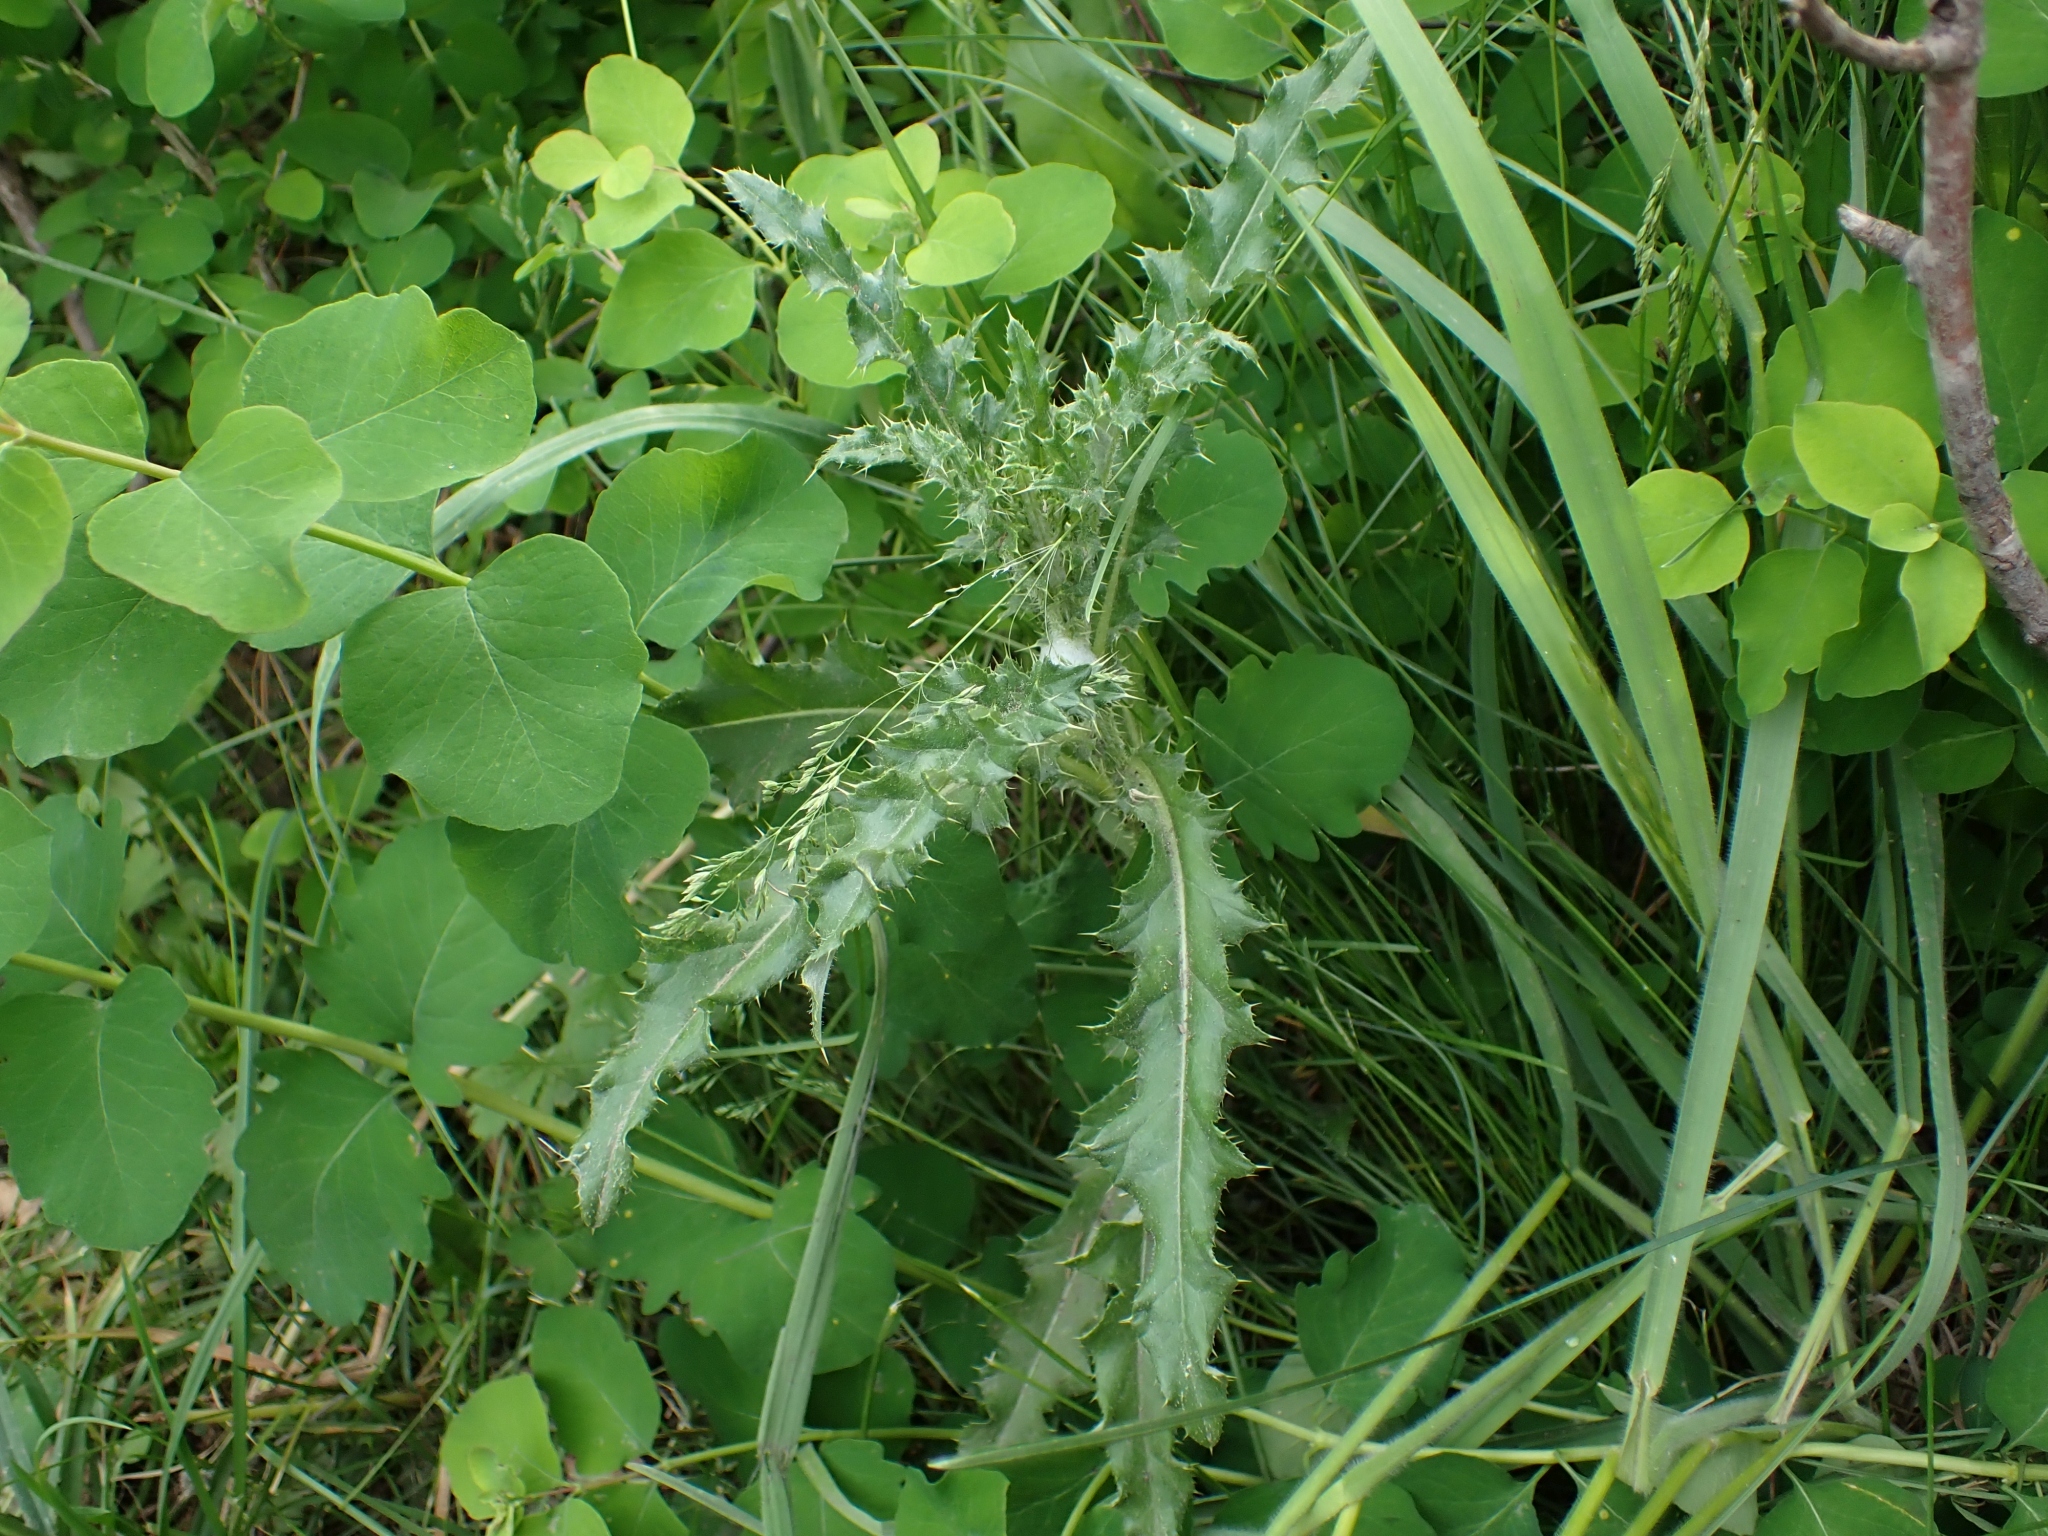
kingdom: Plantae
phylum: Tracheophyta
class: Magnoliopsida
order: Asterales
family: Asteraceae
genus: Cirsium
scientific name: Cirsium arvense
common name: Creeping thistle
